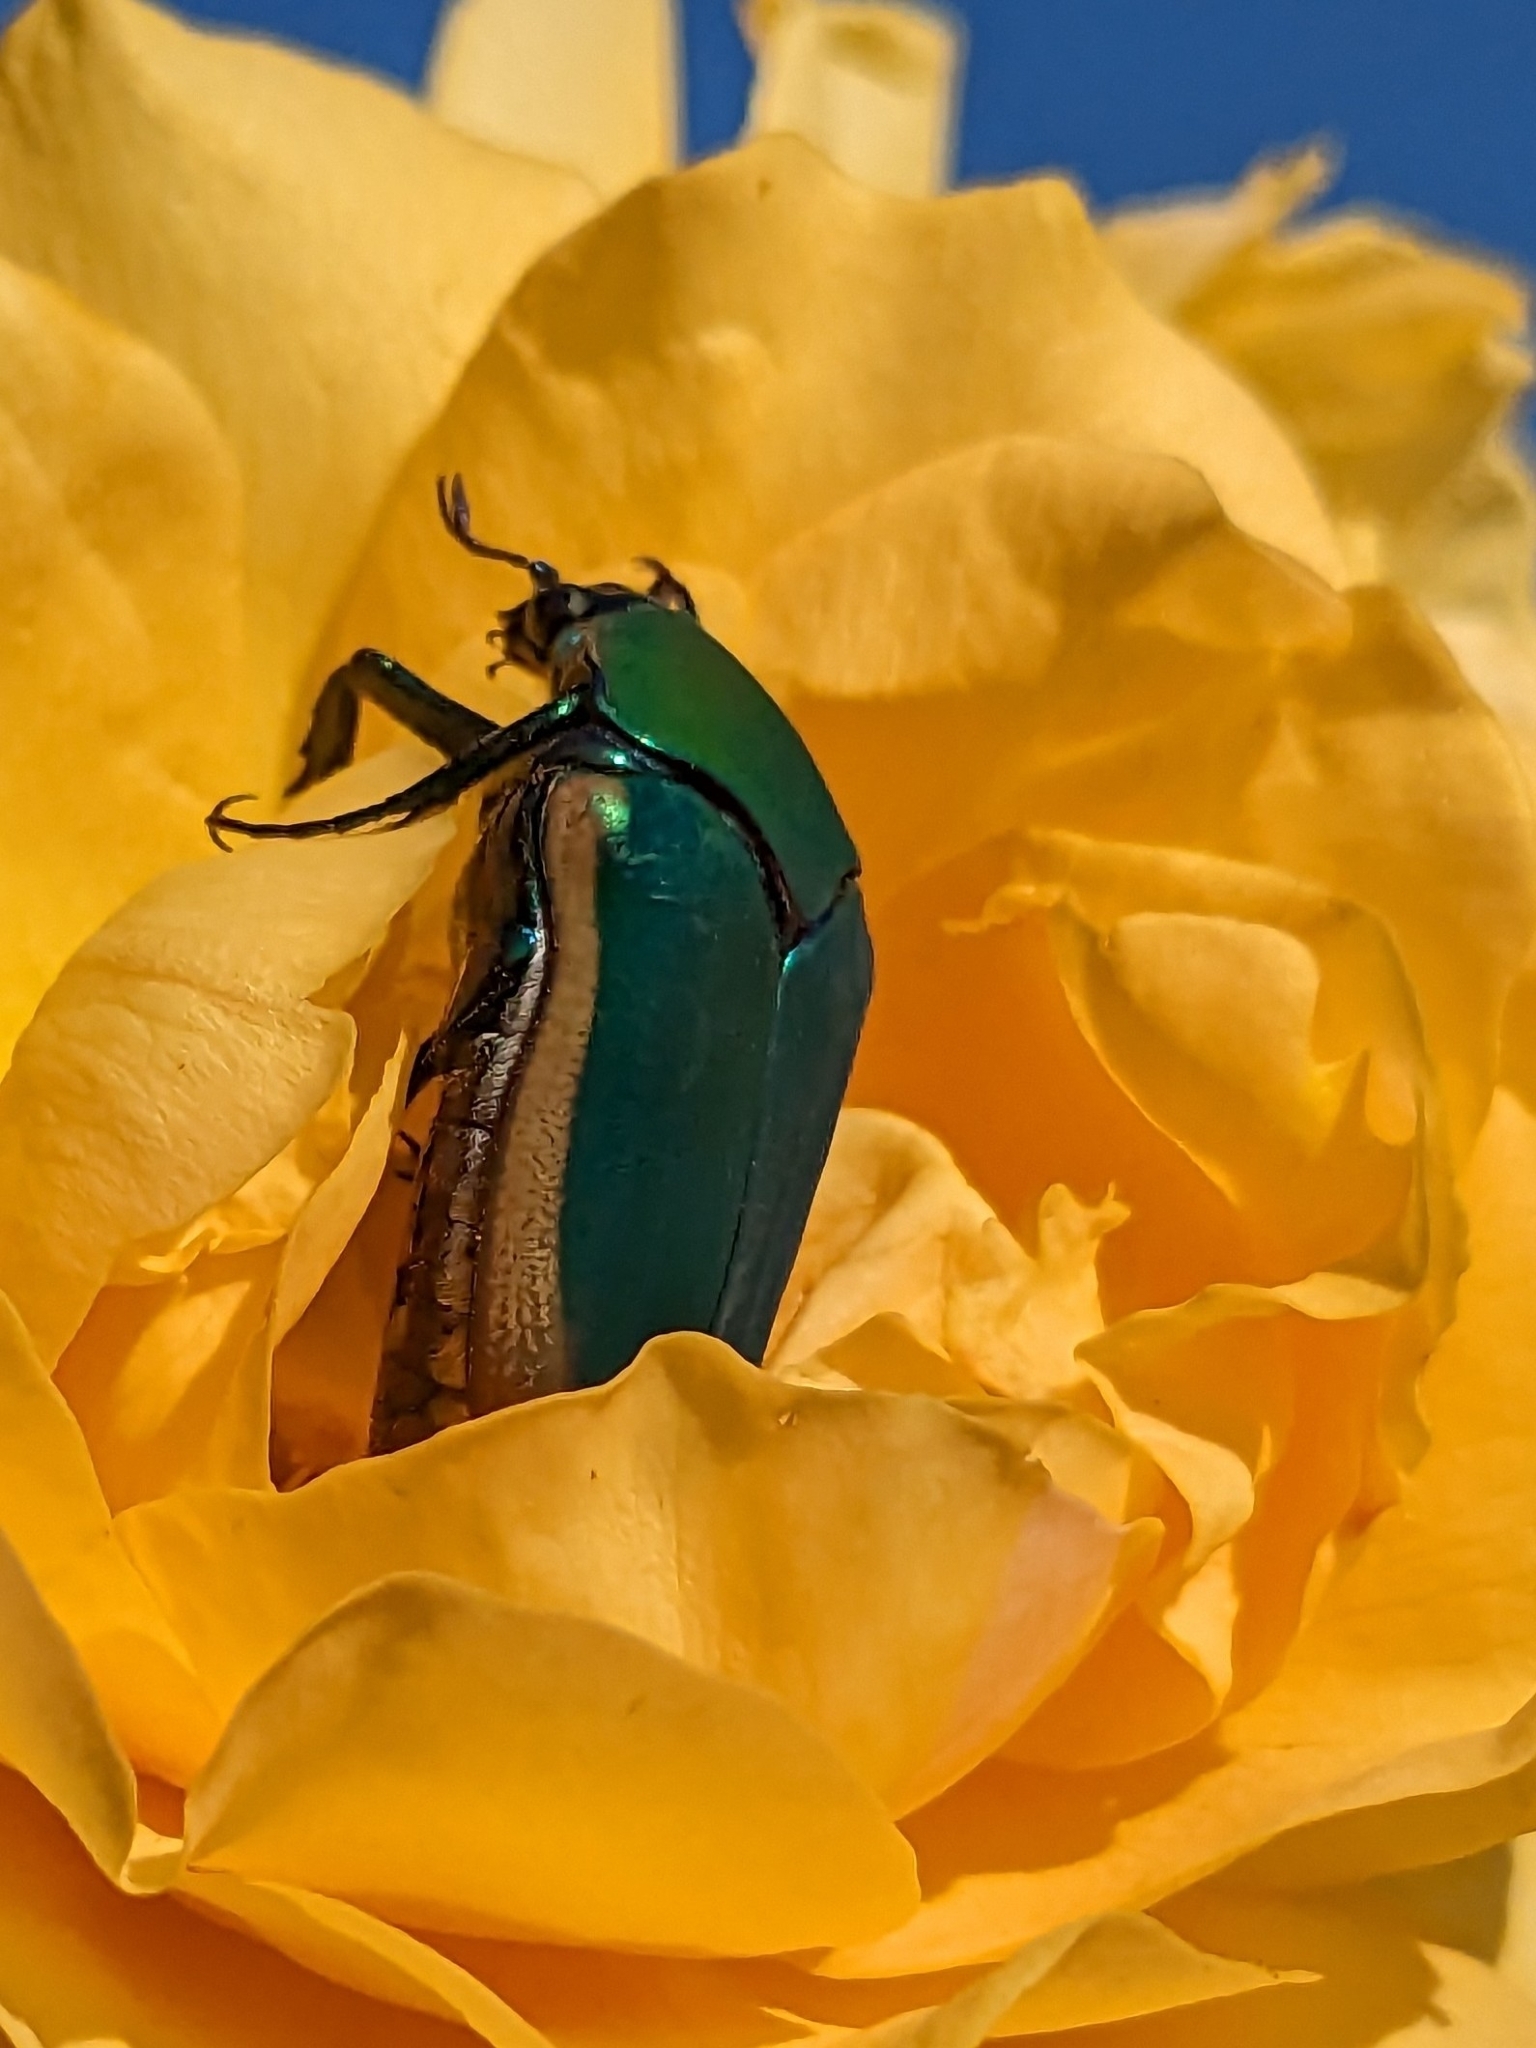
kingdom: Animalia
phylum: Arthropoda
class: Insecta
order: Coleoptera
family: Scarabaeidae
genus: Cotinis
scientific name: Cotinis mutabilis
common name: Figeater beetle
